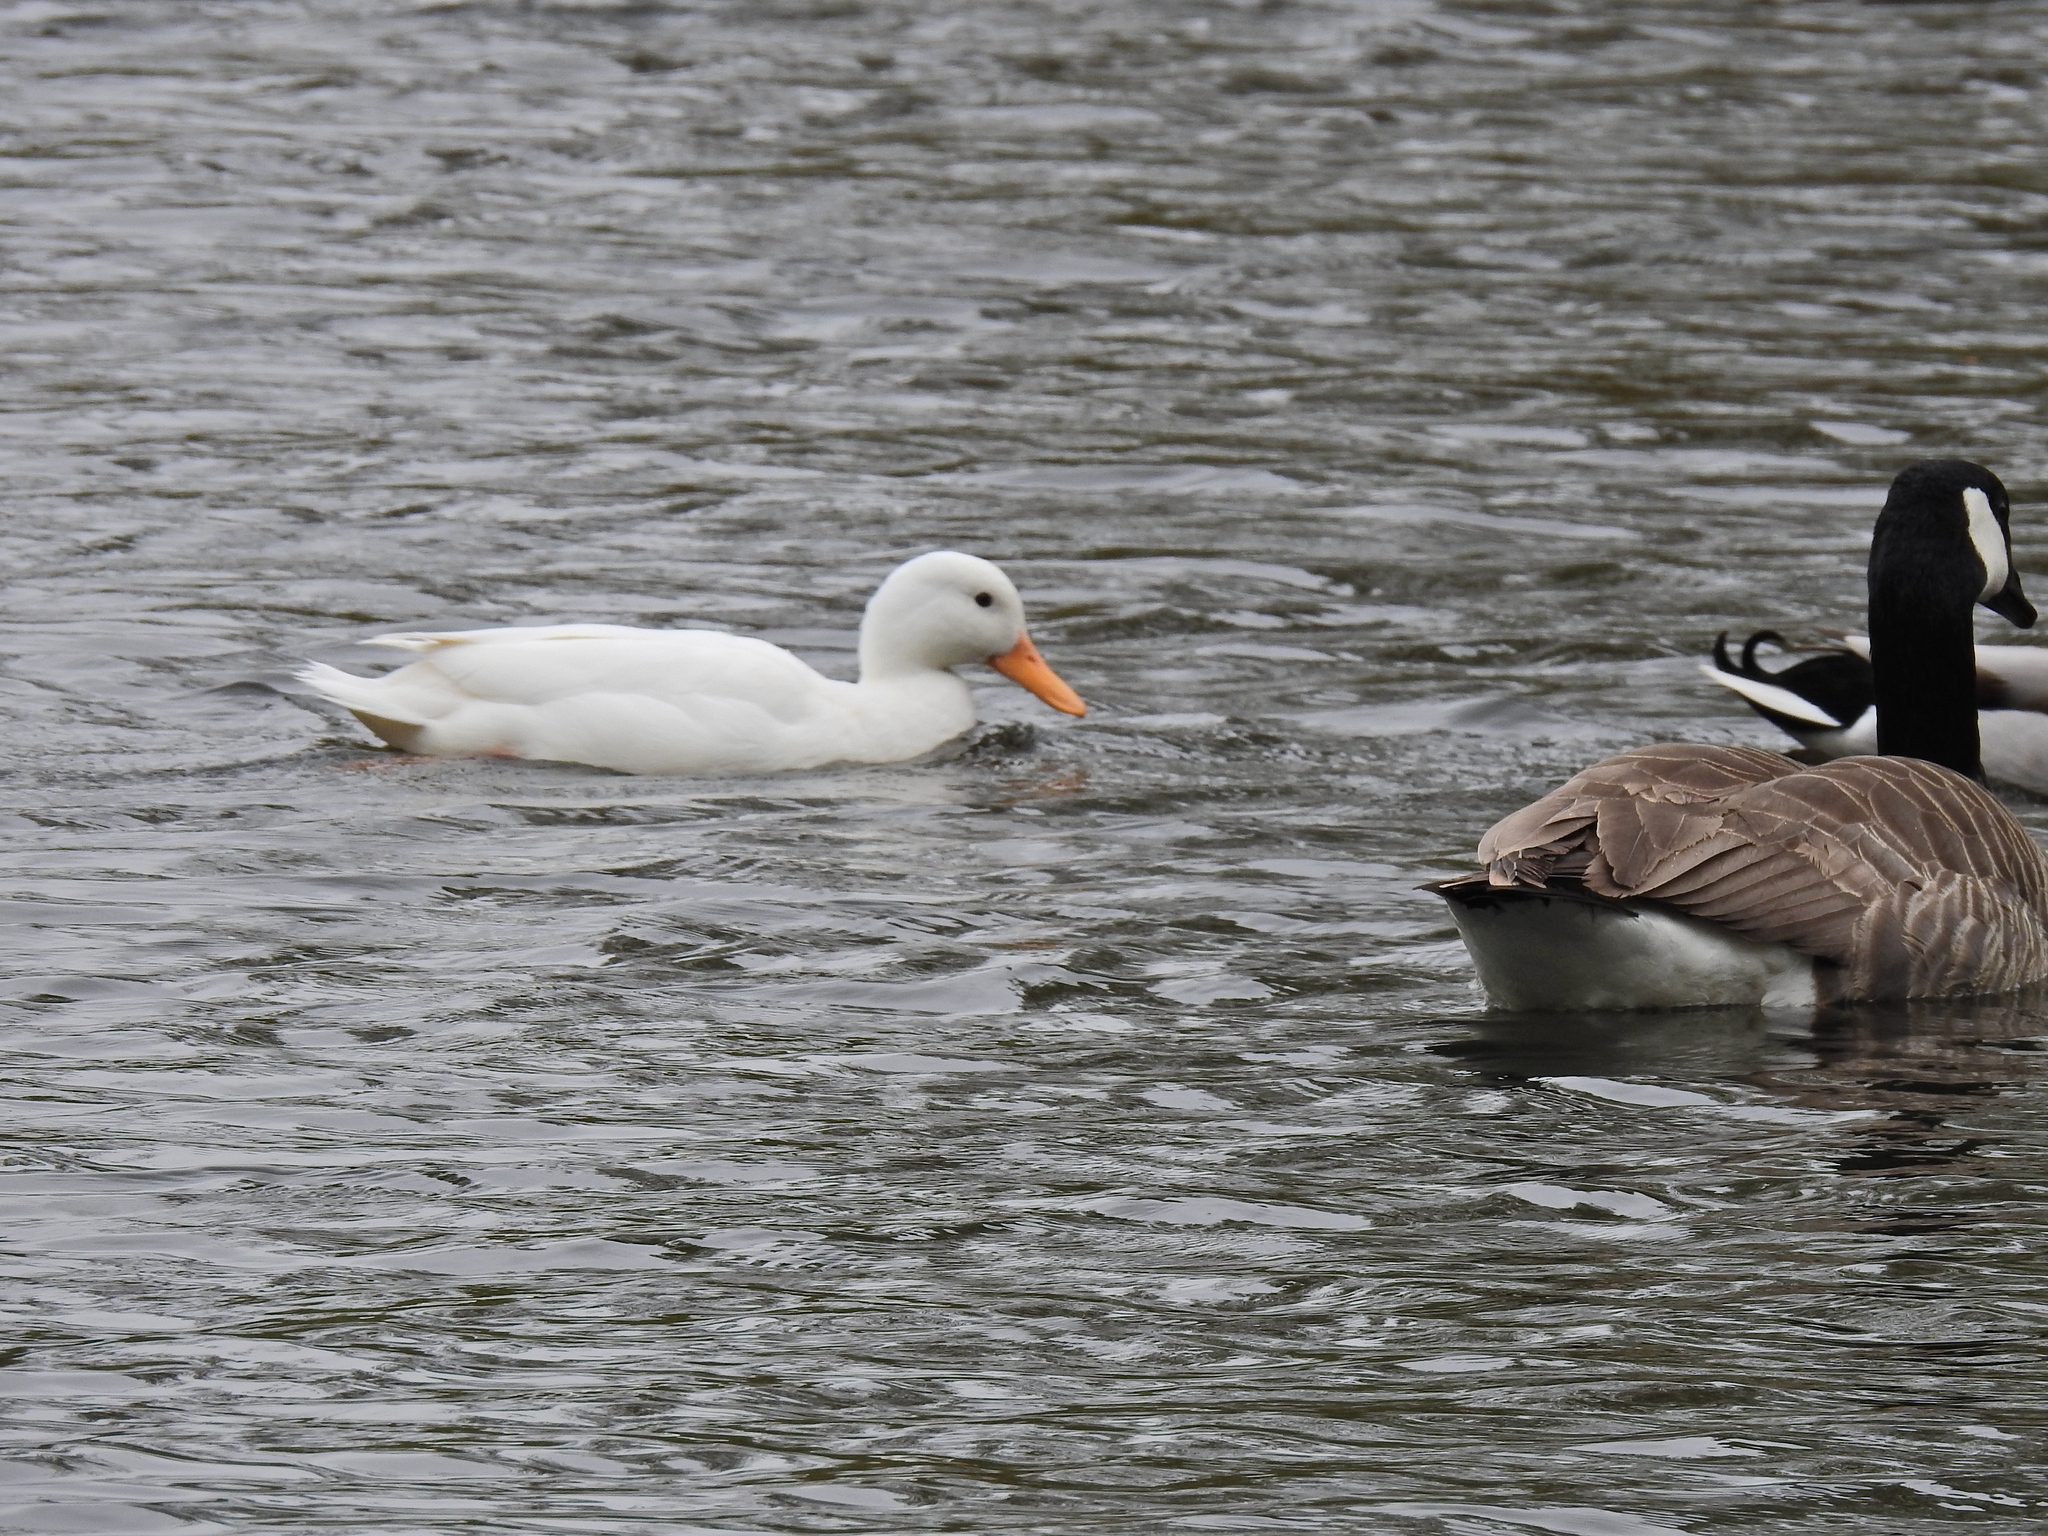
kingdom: Animalia
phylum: Chordata
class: Aves
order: Anseriformes
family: Anatidae
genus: Anas
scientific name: Anas platyrhynchos
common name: Mallard
